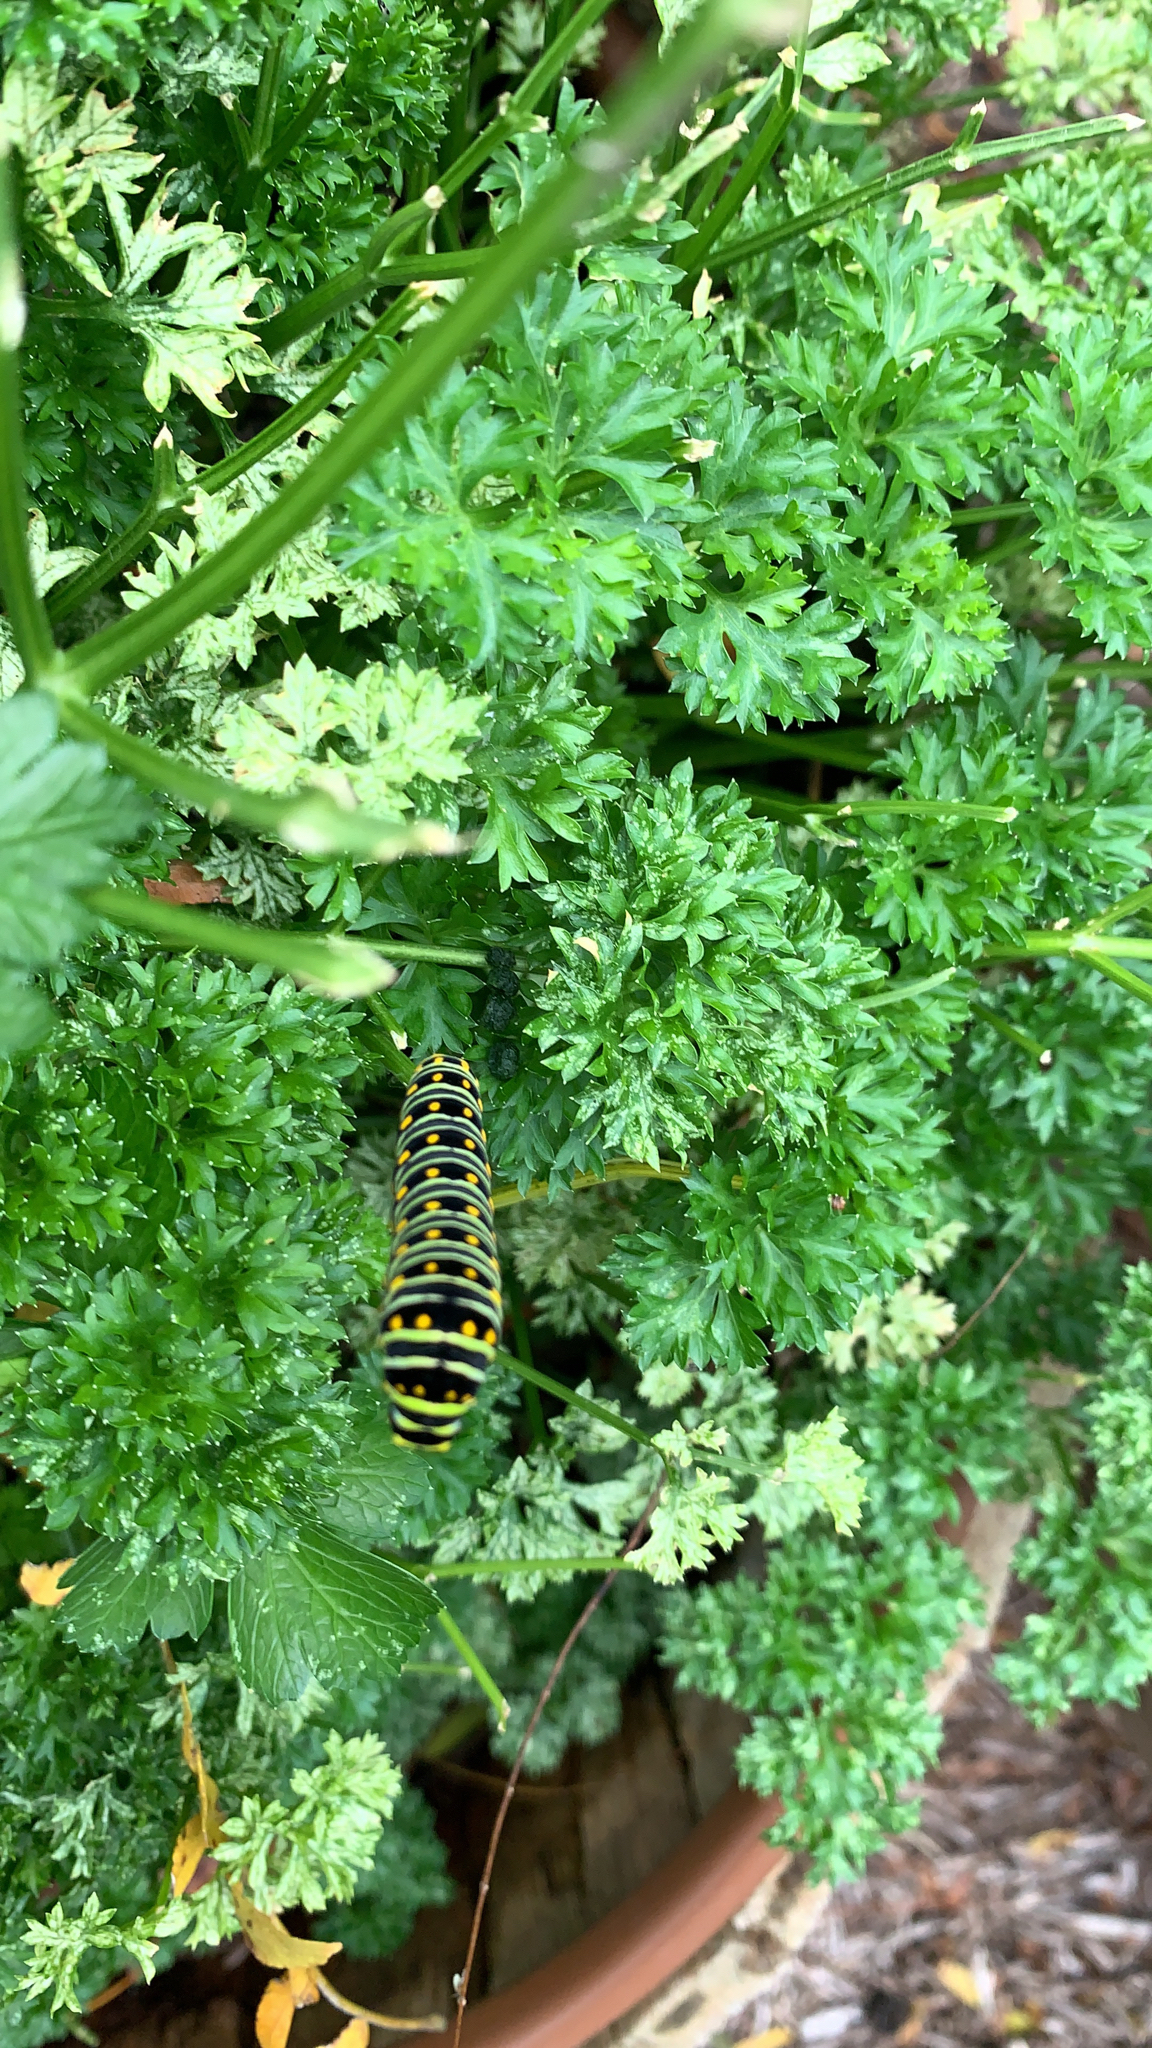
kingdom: Animalia
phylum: Arthropoda
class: Insecta
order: Lepidoptera
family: Papilionidae
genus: Papilio
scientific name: Papilio polyxenes
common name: Black swallowtail
